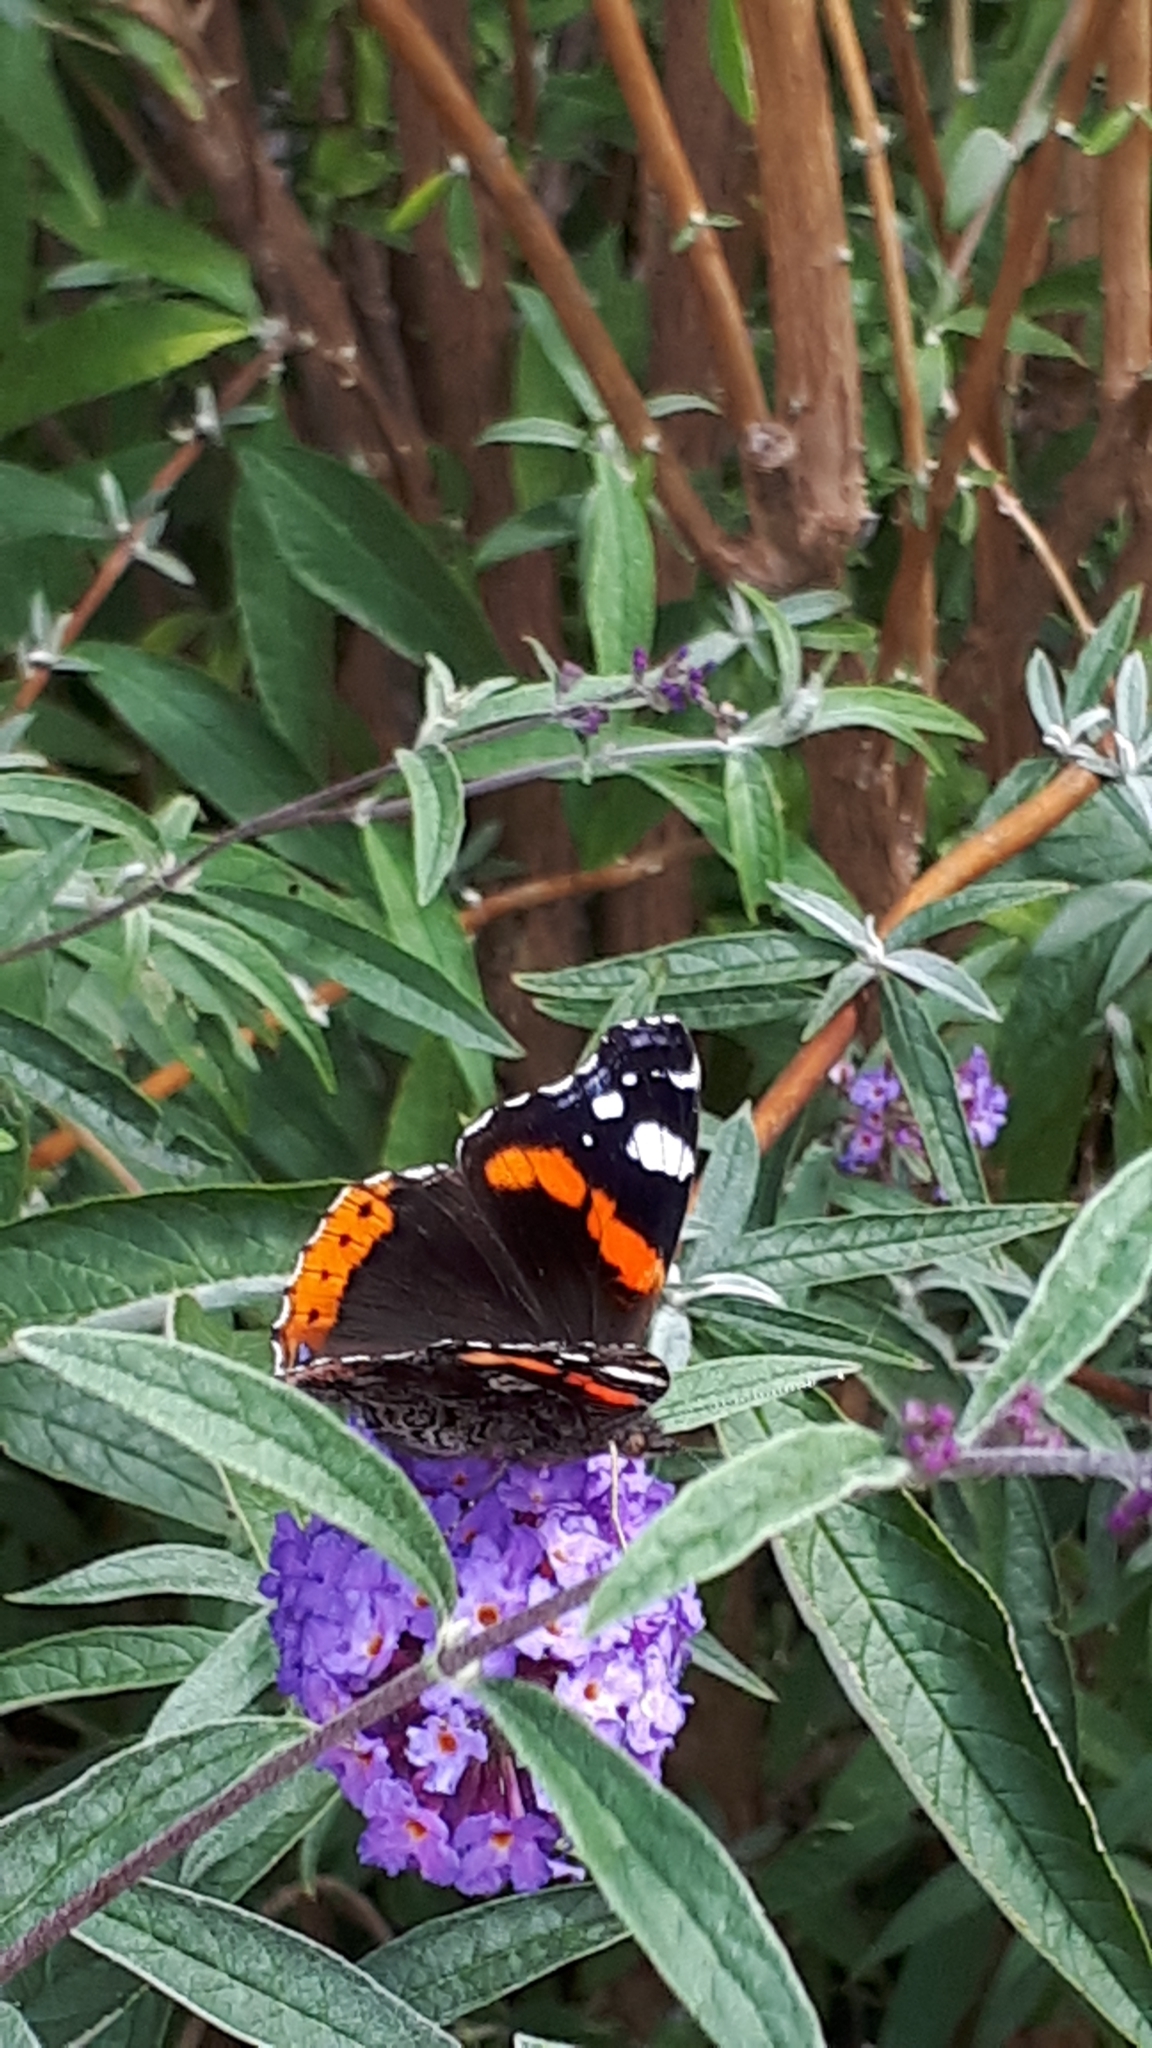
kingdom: Animalia
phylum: Arthropoda
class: Insecta
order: Lepidoptera
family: Nymphalidae
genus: Vanessa
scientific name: Vanessa atalanta
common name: Red admiral
